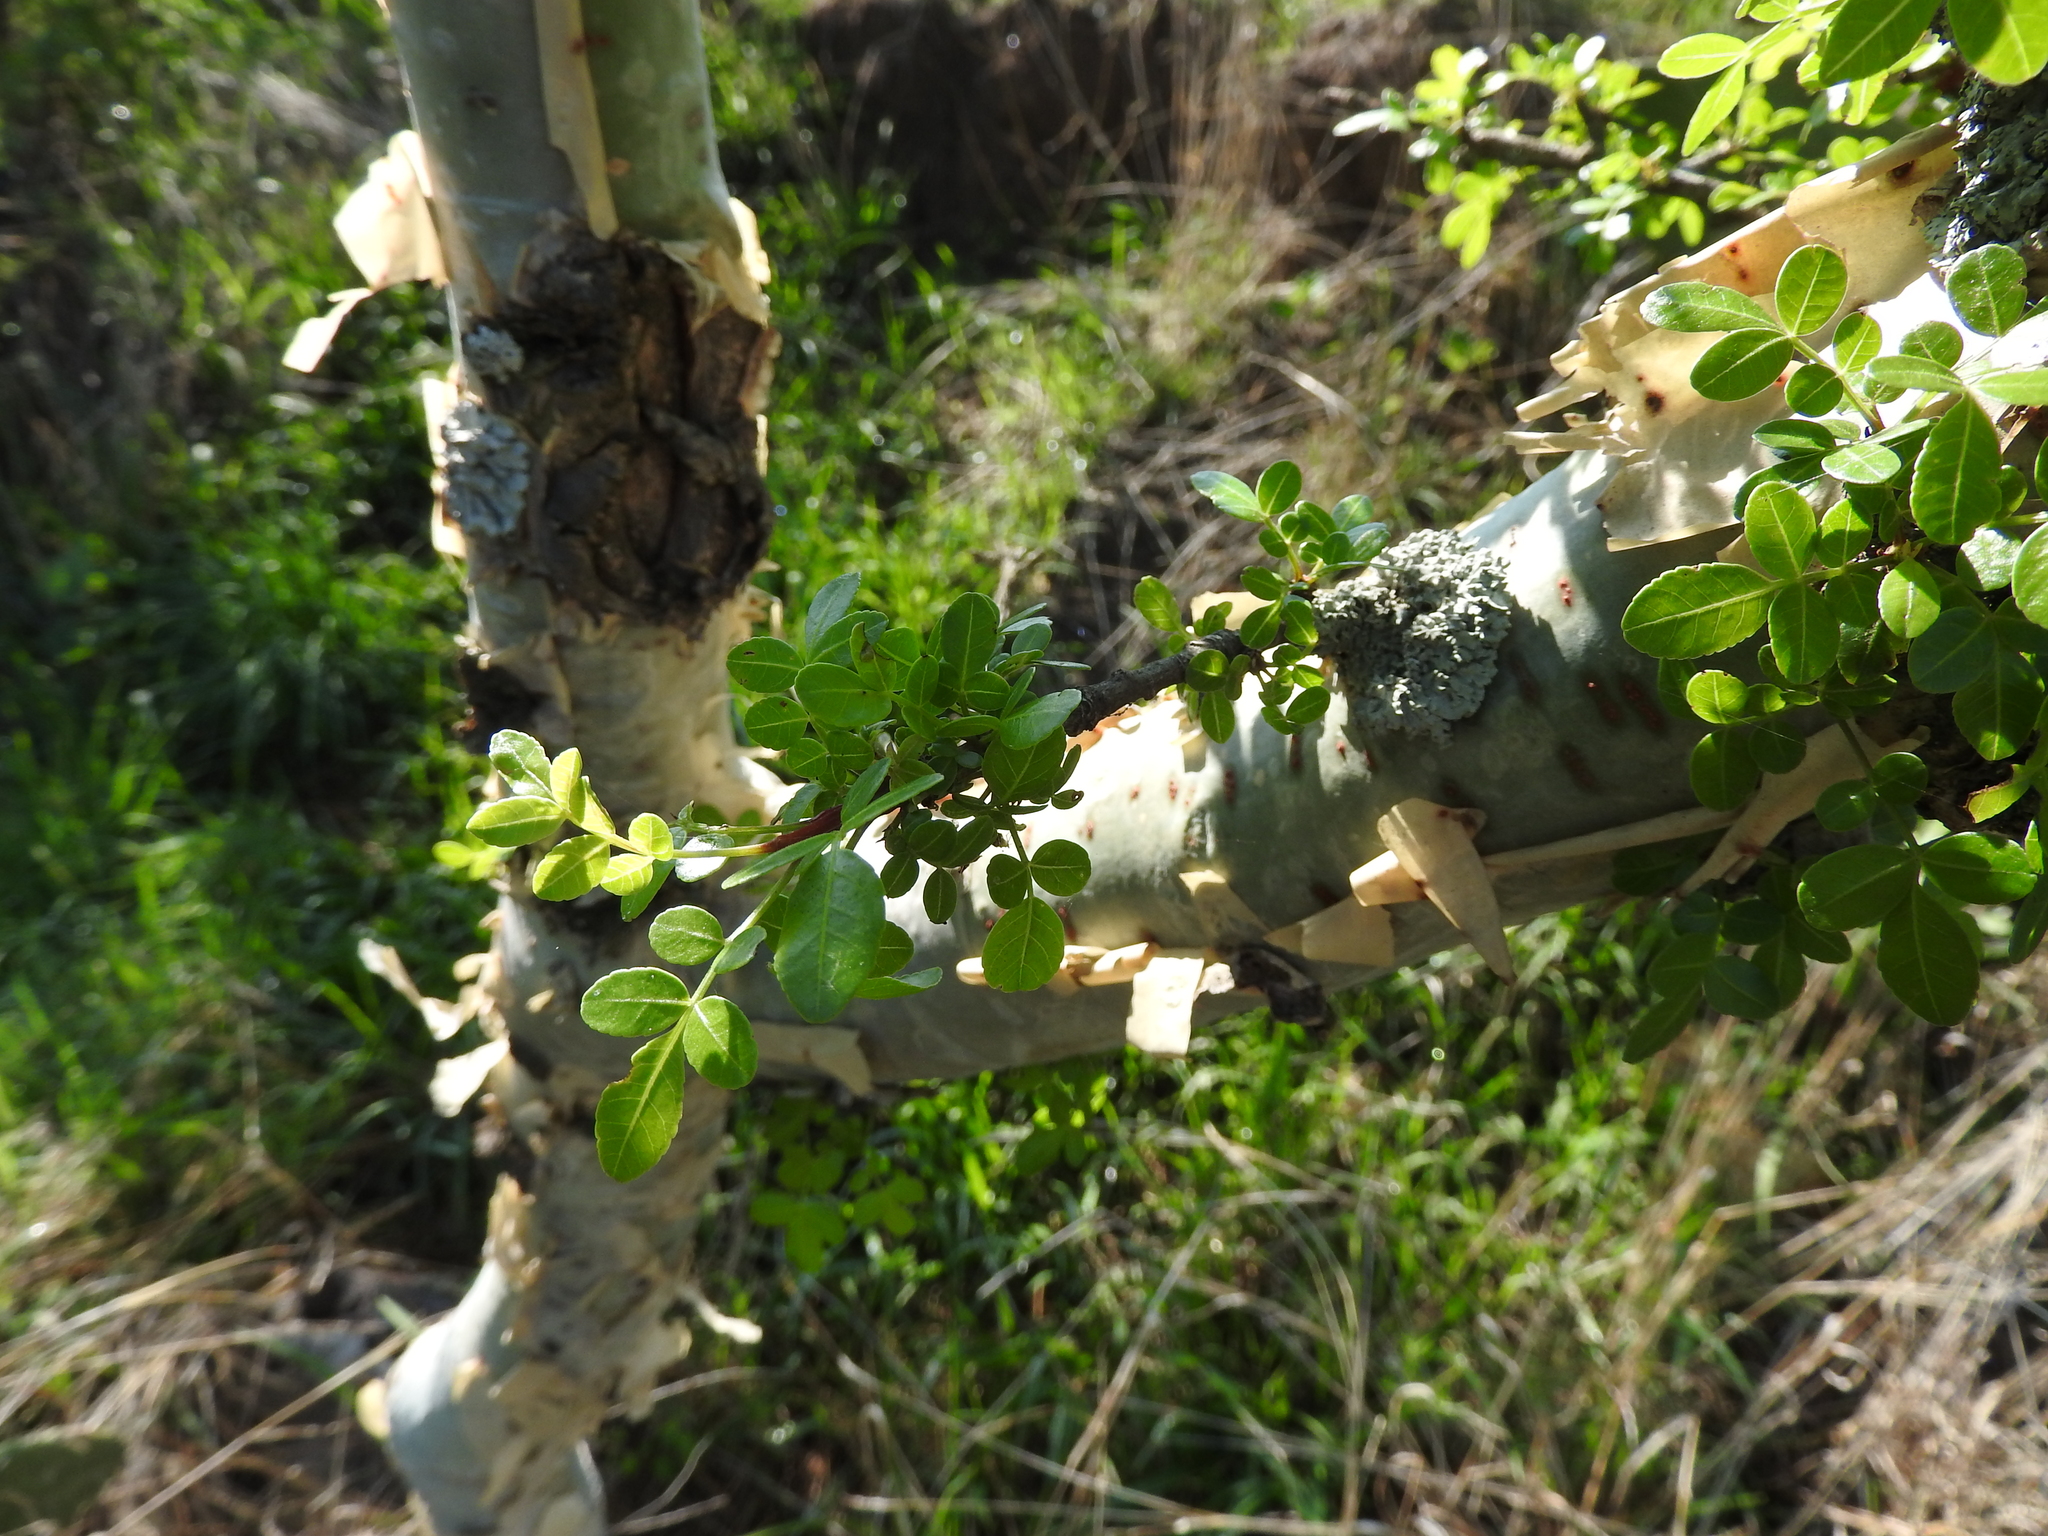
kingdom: Plantae
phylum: Tracheophyta
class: Magnoliopsida
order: Sapindales
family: Burseraceae
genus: Bursera
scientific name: Bursera fagaroides
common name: Elephant tree
